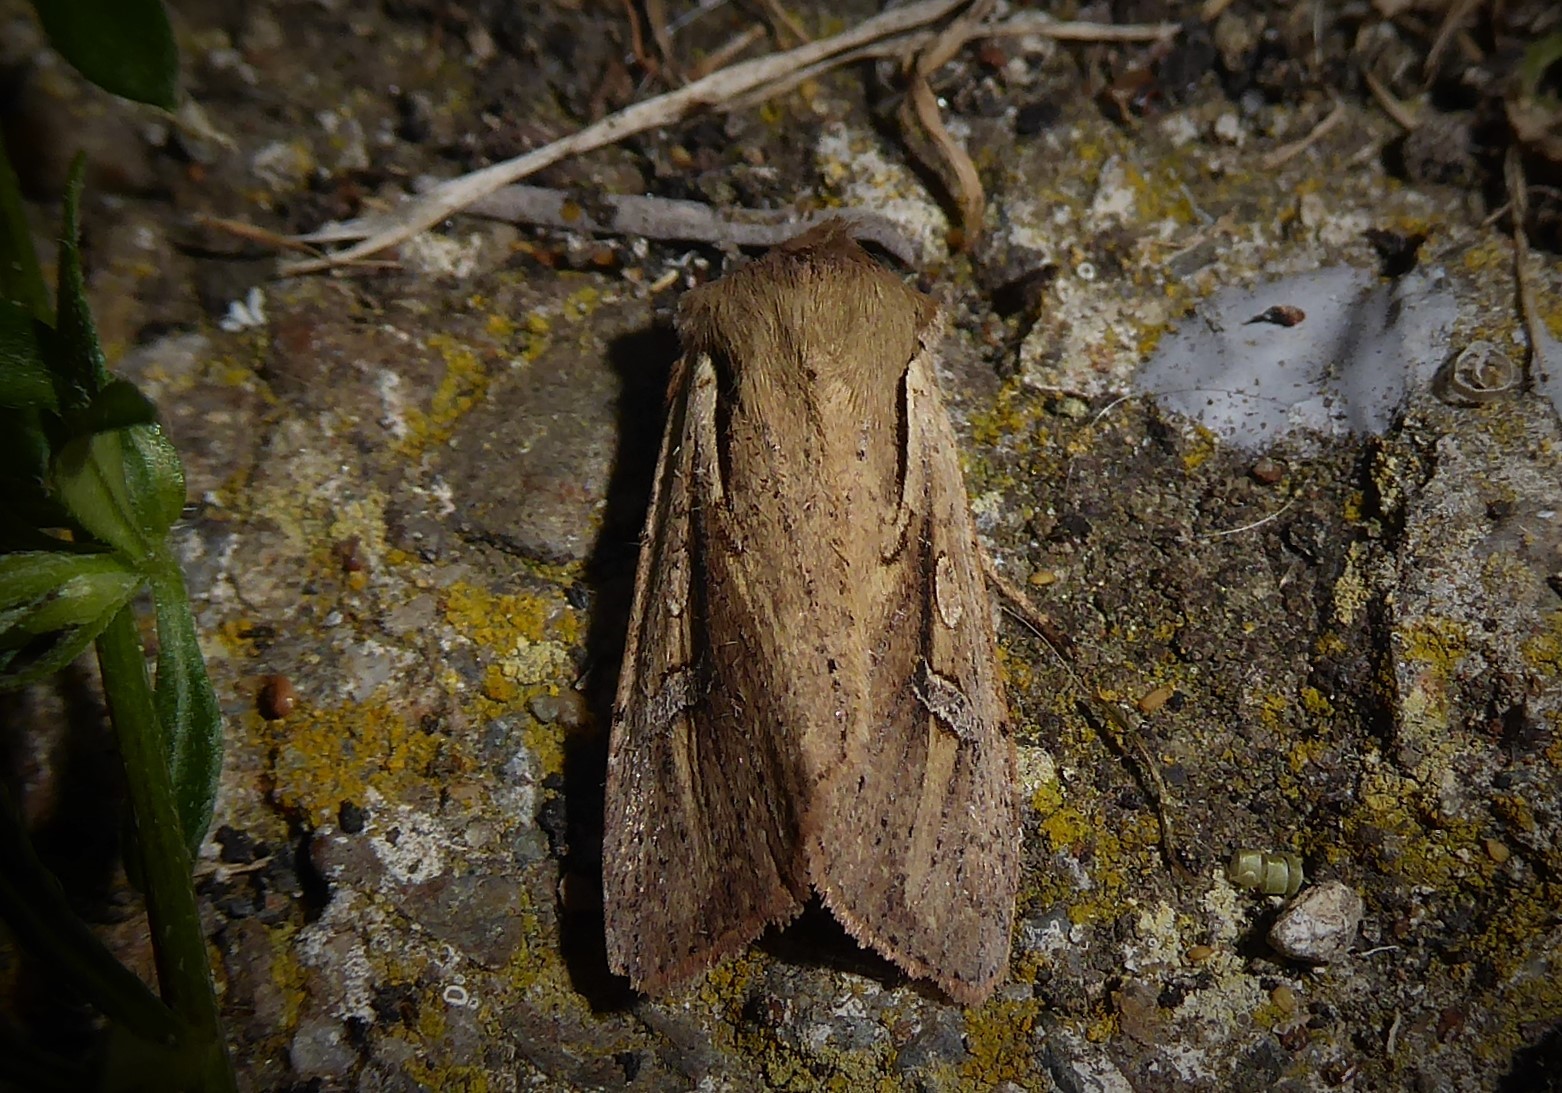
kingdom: Animalia
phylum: Arthropoda
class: Insecta
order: Lepidoptera
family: Noctuidae
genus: Ichneutica
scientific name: Ichneutica atristriga
